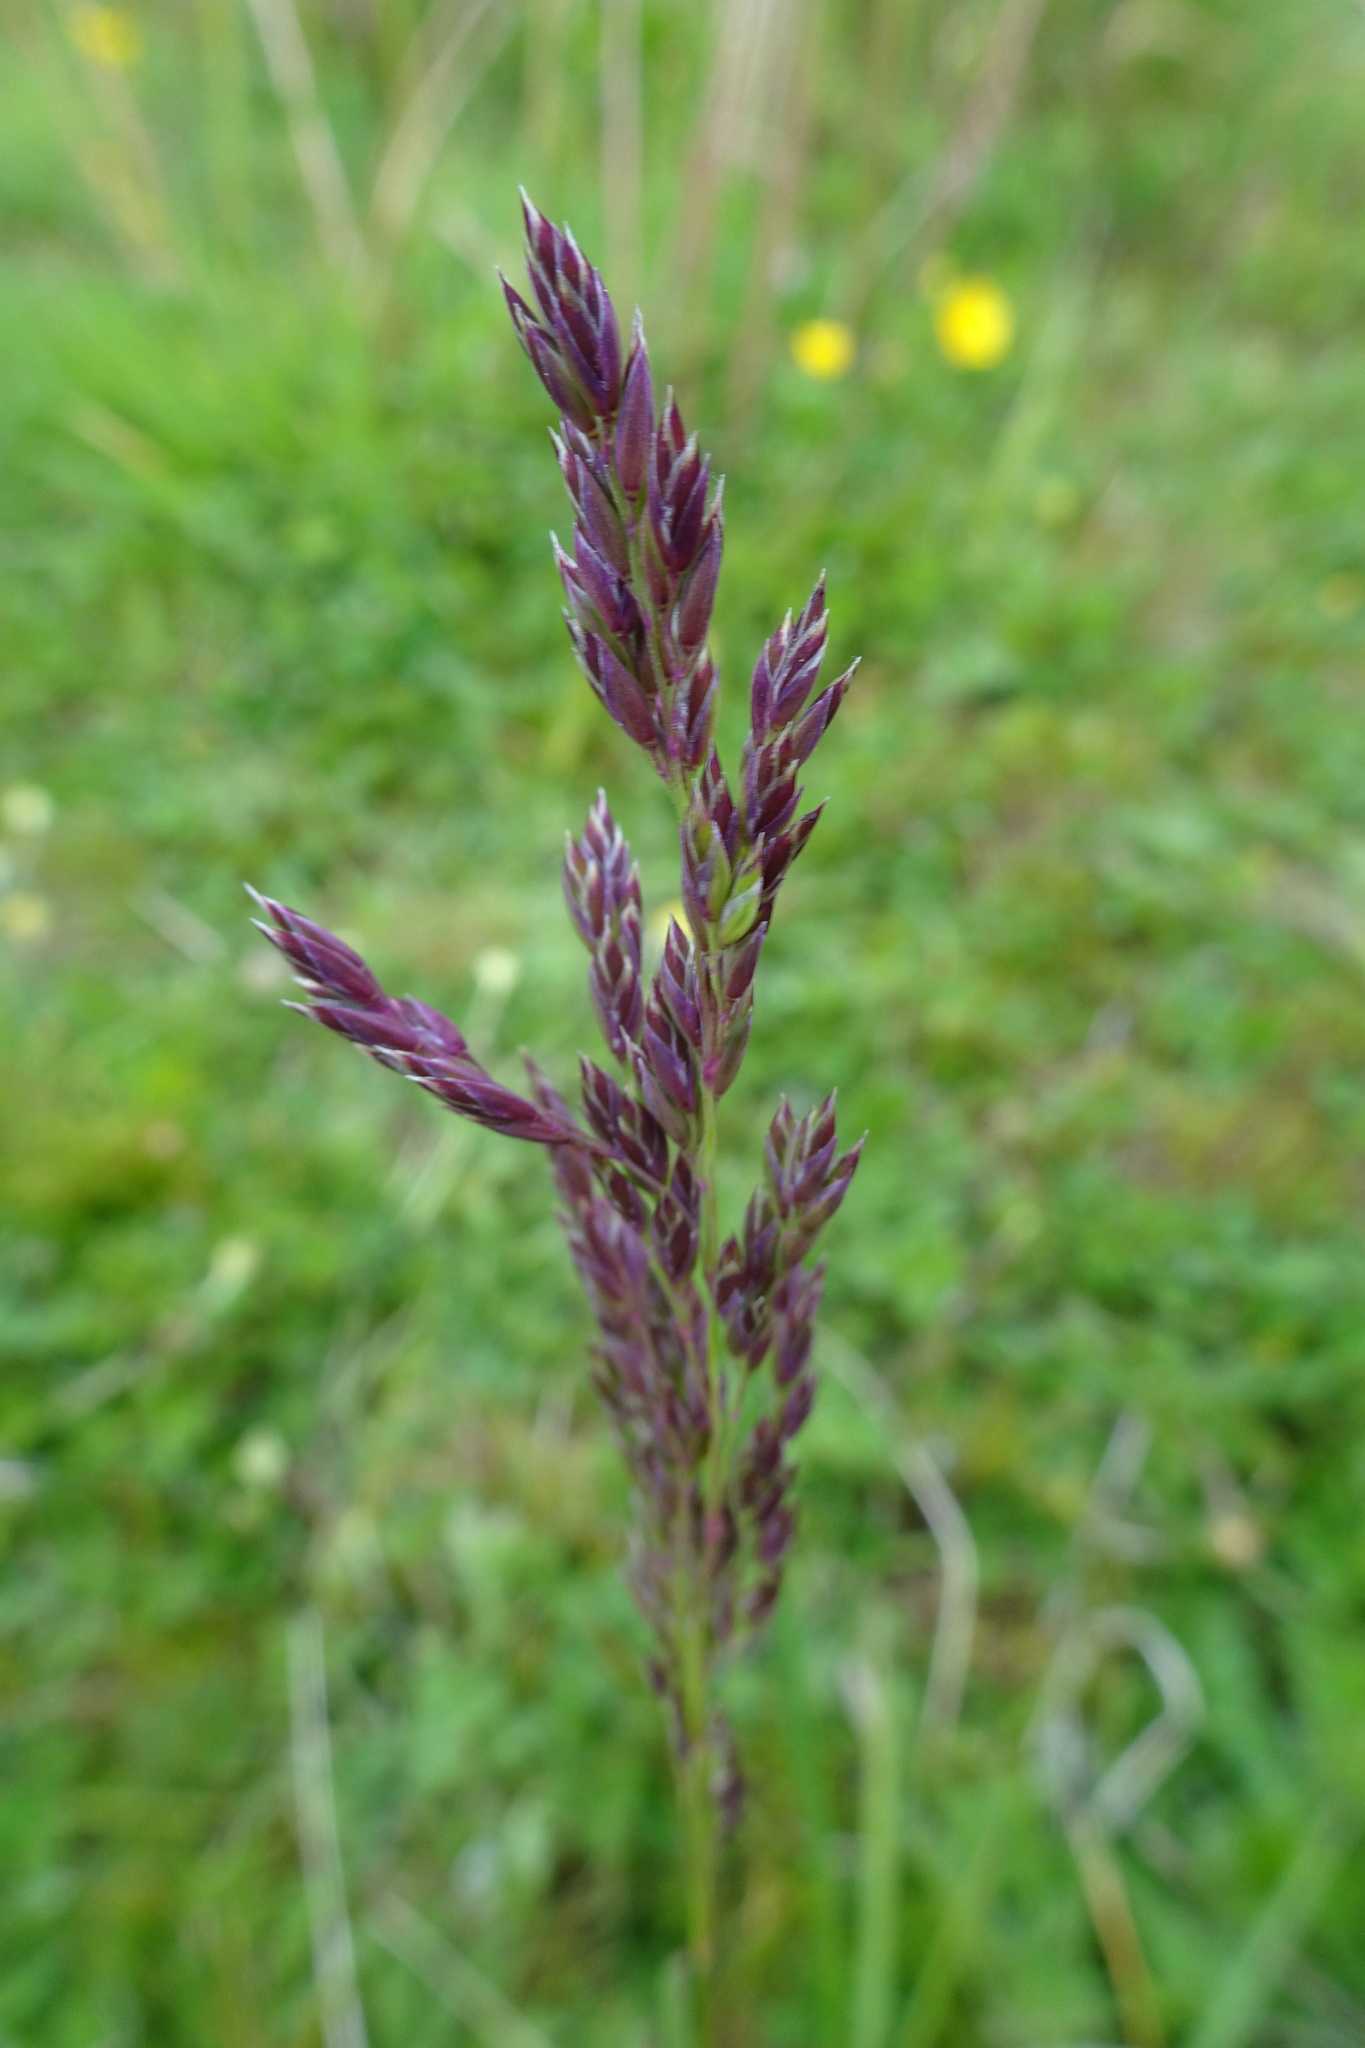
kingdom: Plantae
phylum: Tracheophyta
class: Liliopsida
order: Poales
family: Poaceae
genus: Poa
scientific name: Poa pratensis
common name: Kentucky bluegrass
